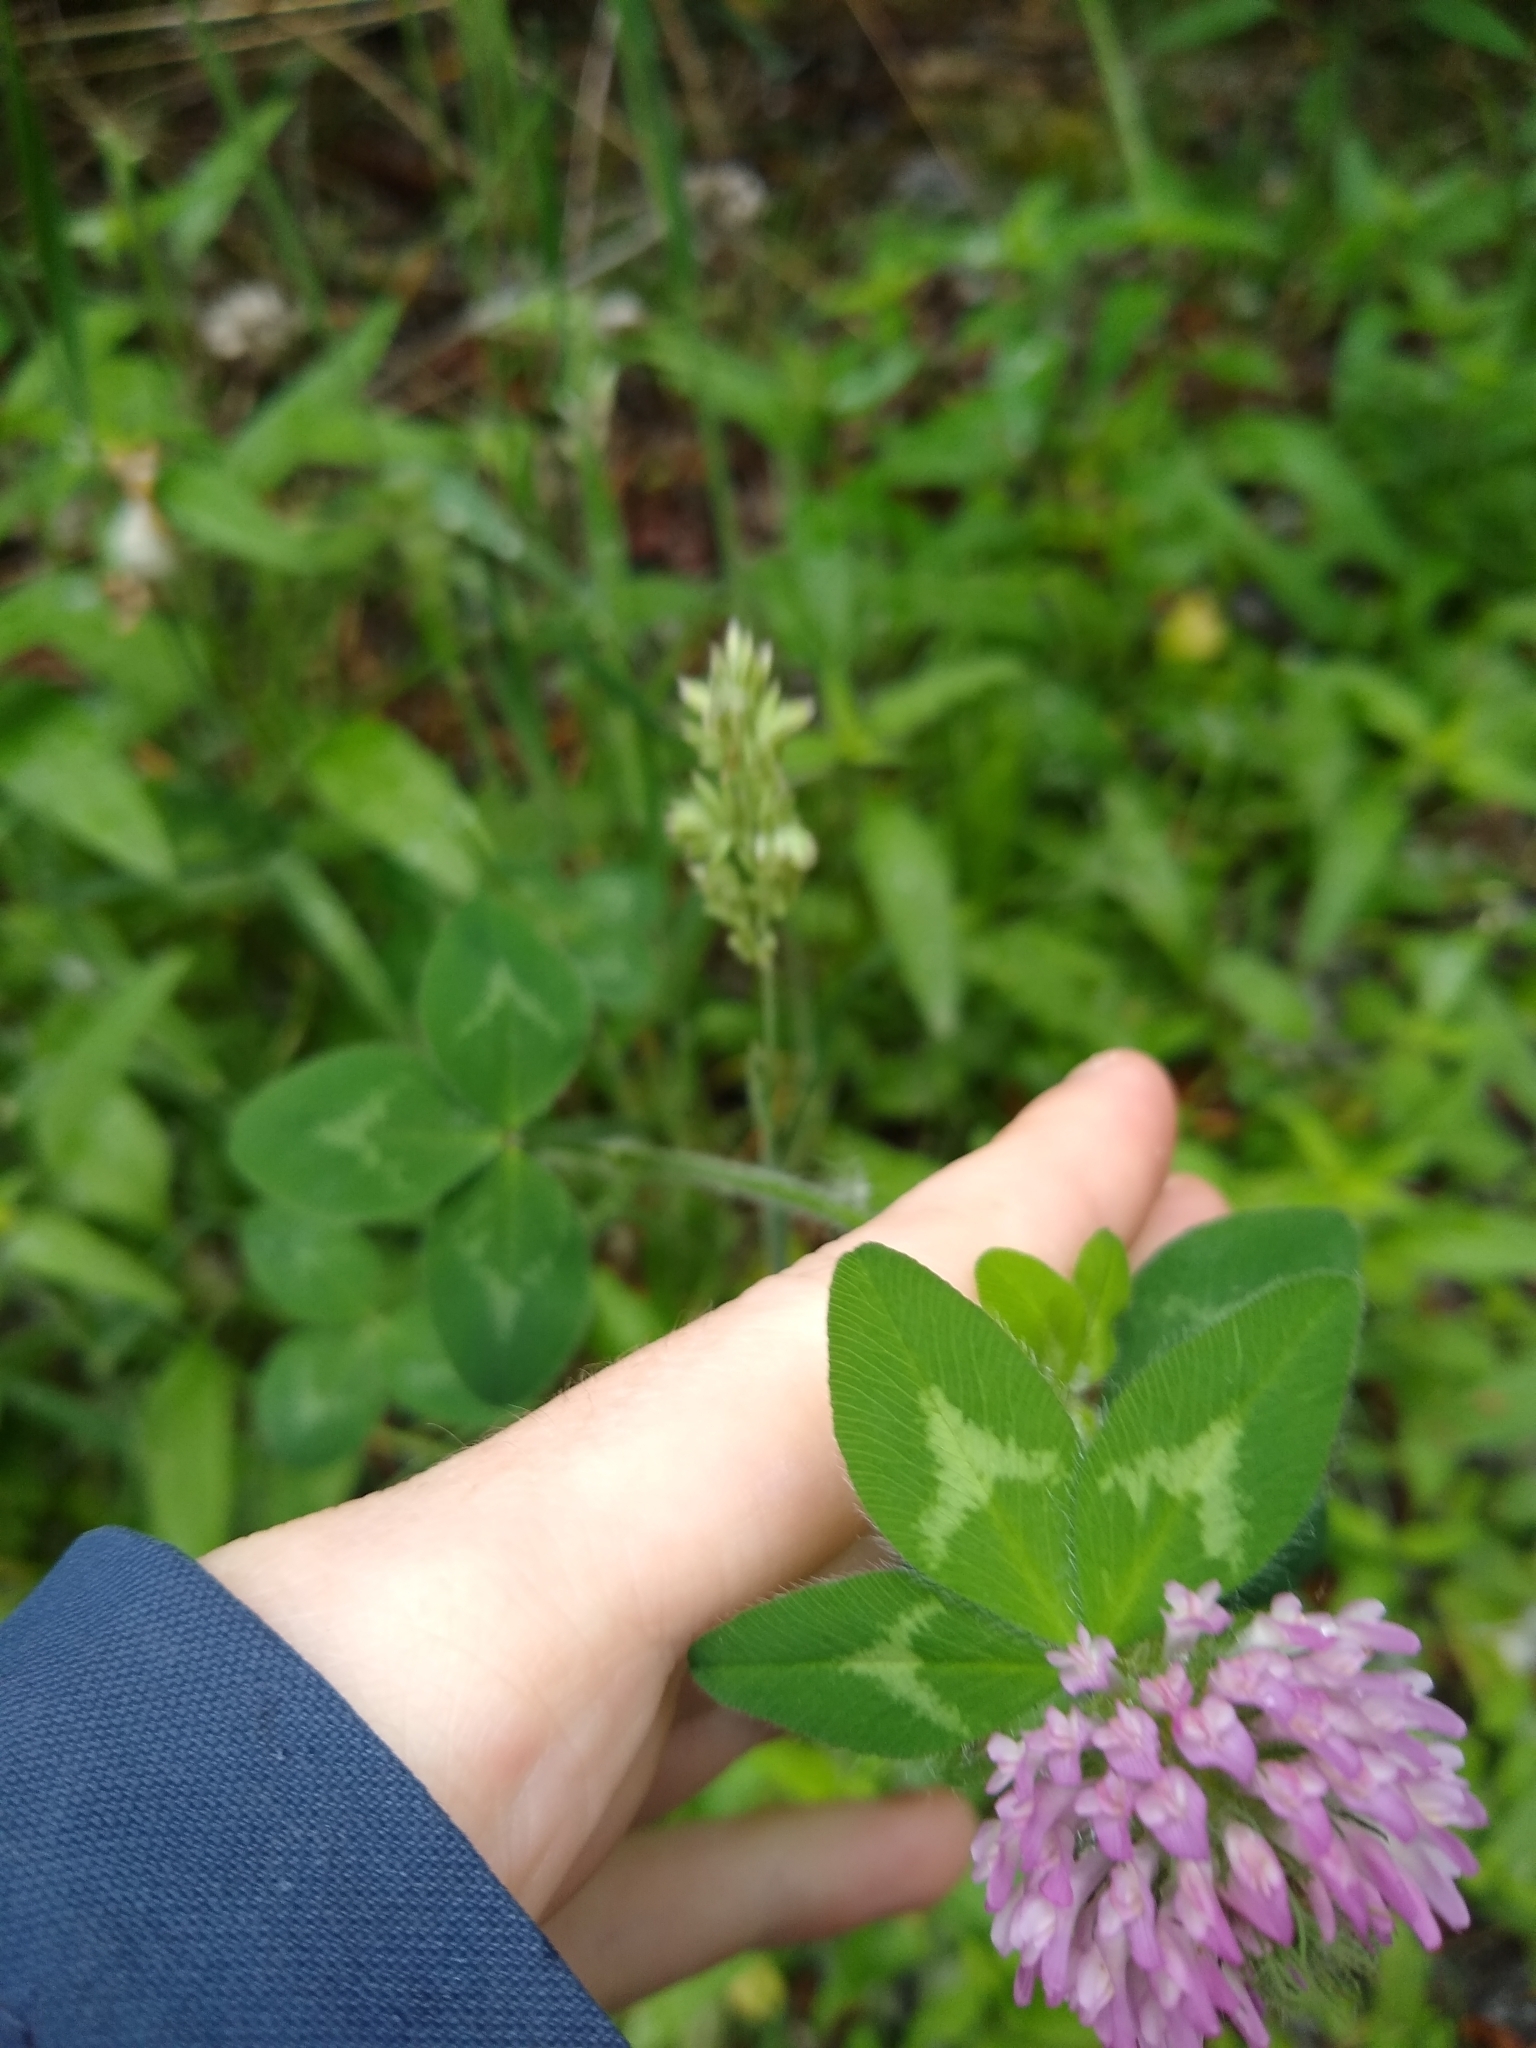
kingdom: Plantae
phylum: Tracheophyta
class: Magnoliopsida
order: Fabales
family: Fabaceae
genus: Trifolium
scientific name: Trifolium pratense
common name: Red clover
